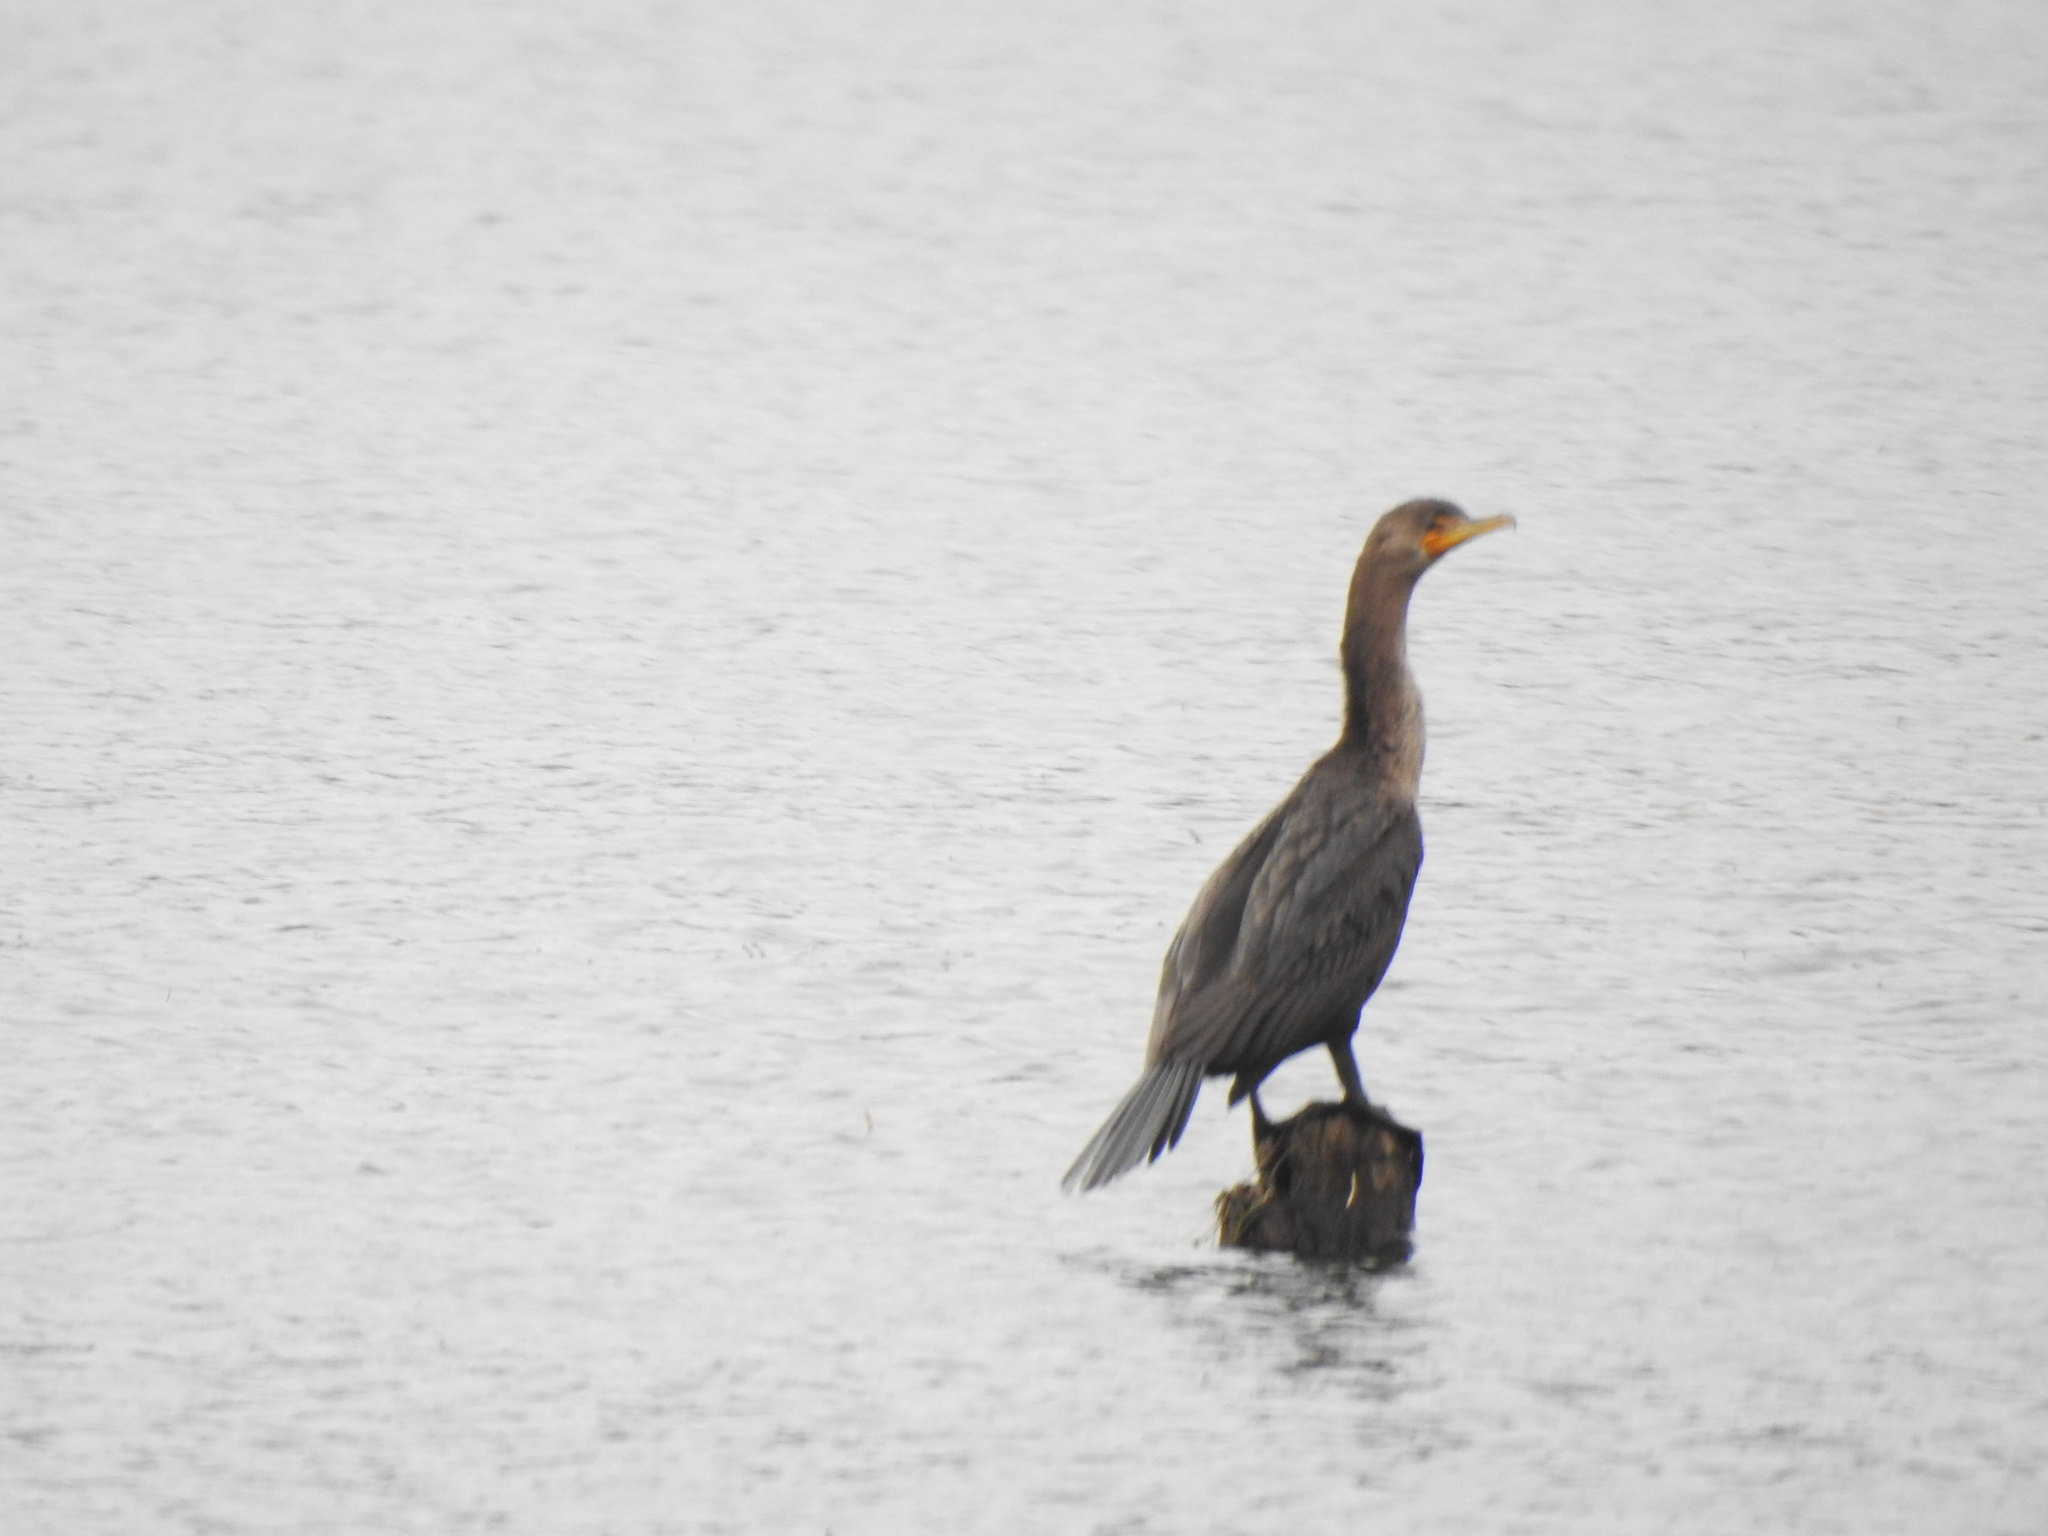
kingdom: Animalia
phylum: Chordata
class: Aves
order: Suliformes
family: Phalacrocoracidae
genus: Phalacrocorax
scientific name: Phalacrocorax auritus
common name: Double-crested cormorant
